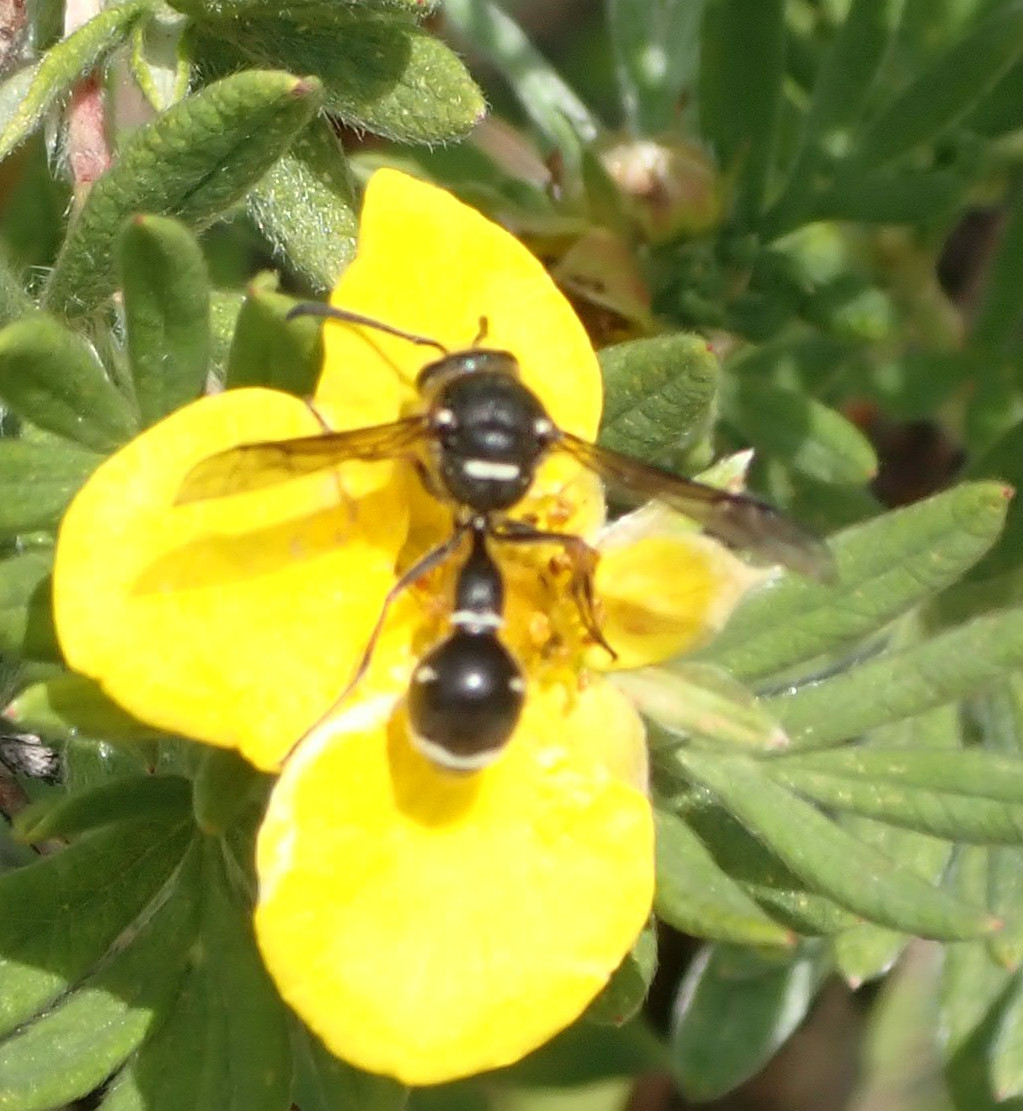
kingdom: Animalia
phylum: Arthropoda
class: Insecta
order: Hymenoptera
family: Vespidae
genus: Eumenes
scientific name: Eumenes crucifera
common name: Cross potter wasp
